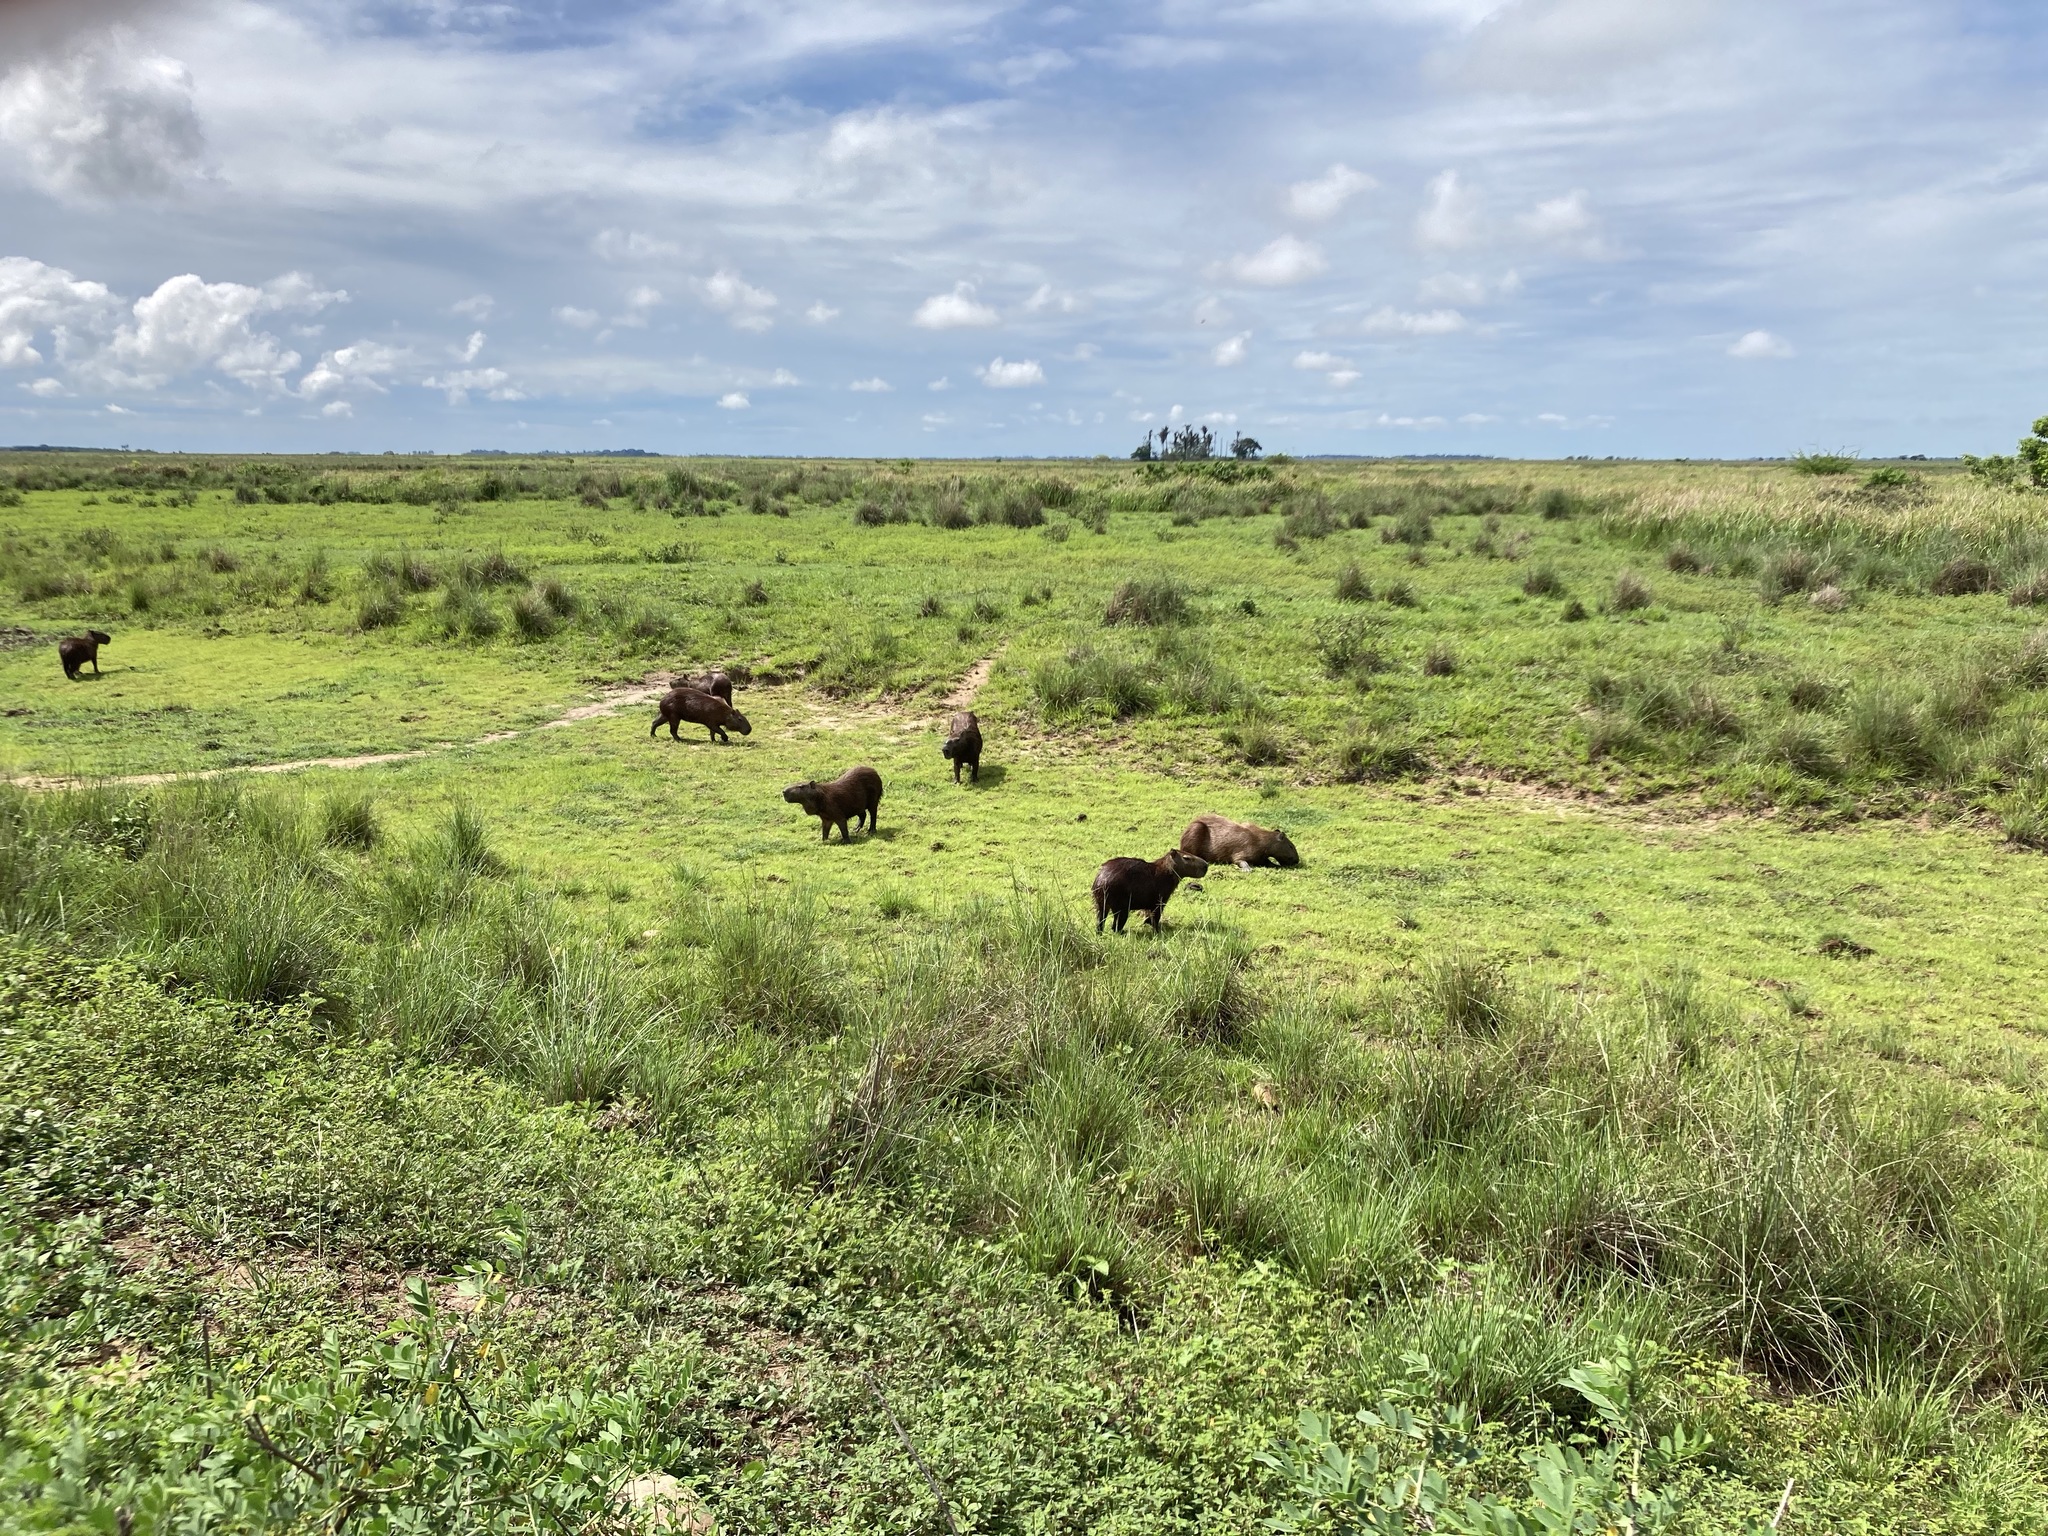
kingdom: Animalia
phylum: Chordata
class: Mammalia
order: Rodentia
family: Caviidae
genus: Hydrochoerus
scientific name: Hydrochoerus hydrochaeris
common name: Capybara
